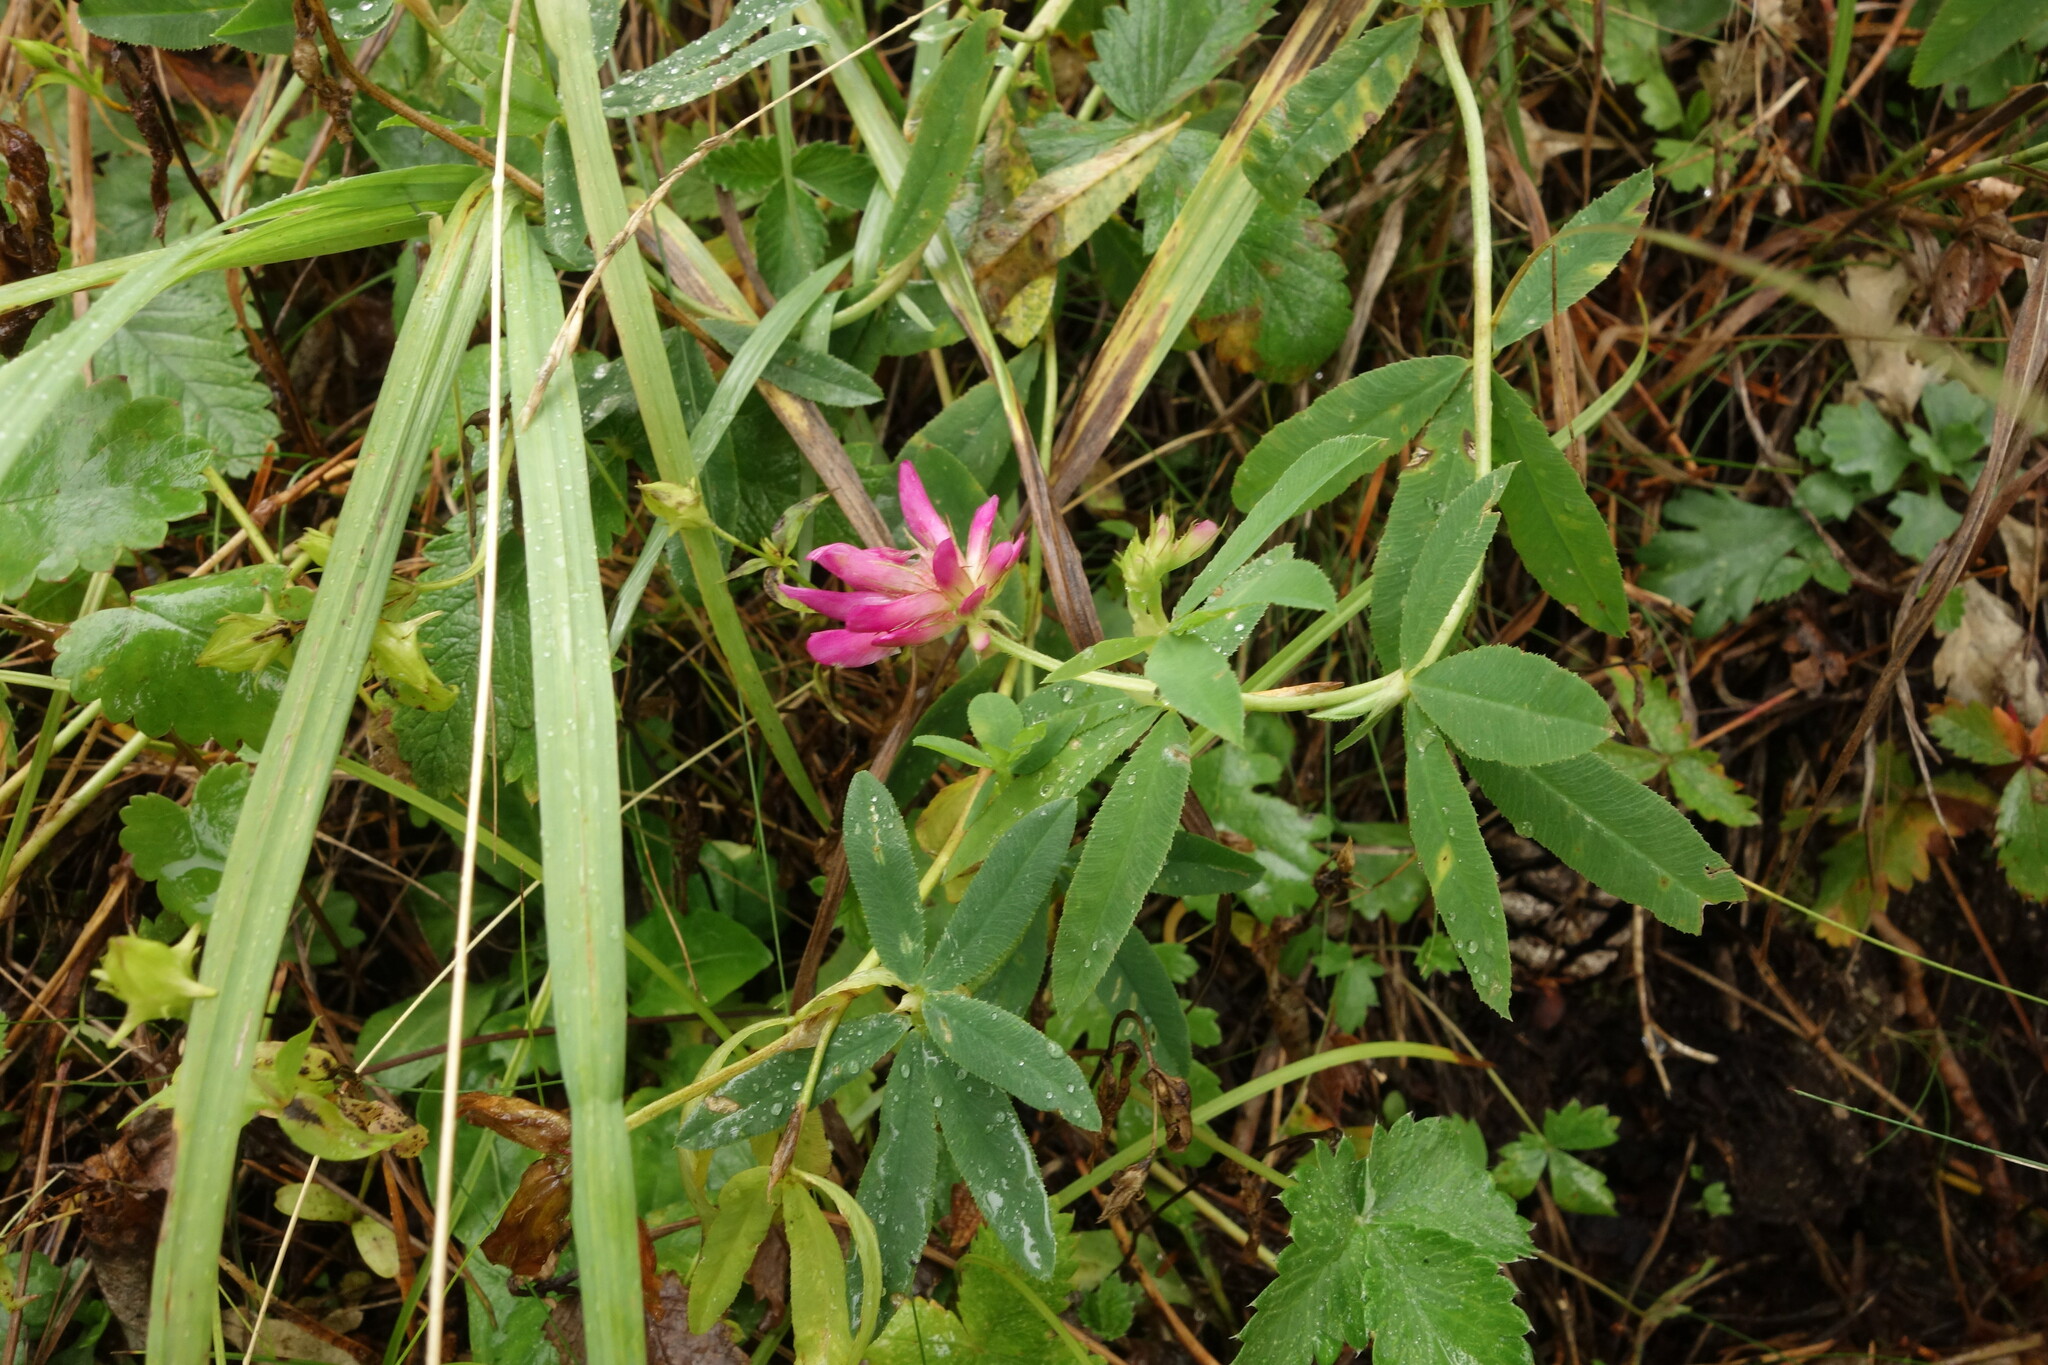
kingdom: Plantae
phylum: Tracheophyta
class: Magnoliopsida
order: Fabales
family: Fabaceae
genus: Trifolium
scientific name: Trifolium lupinaster
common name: Lupine clover
